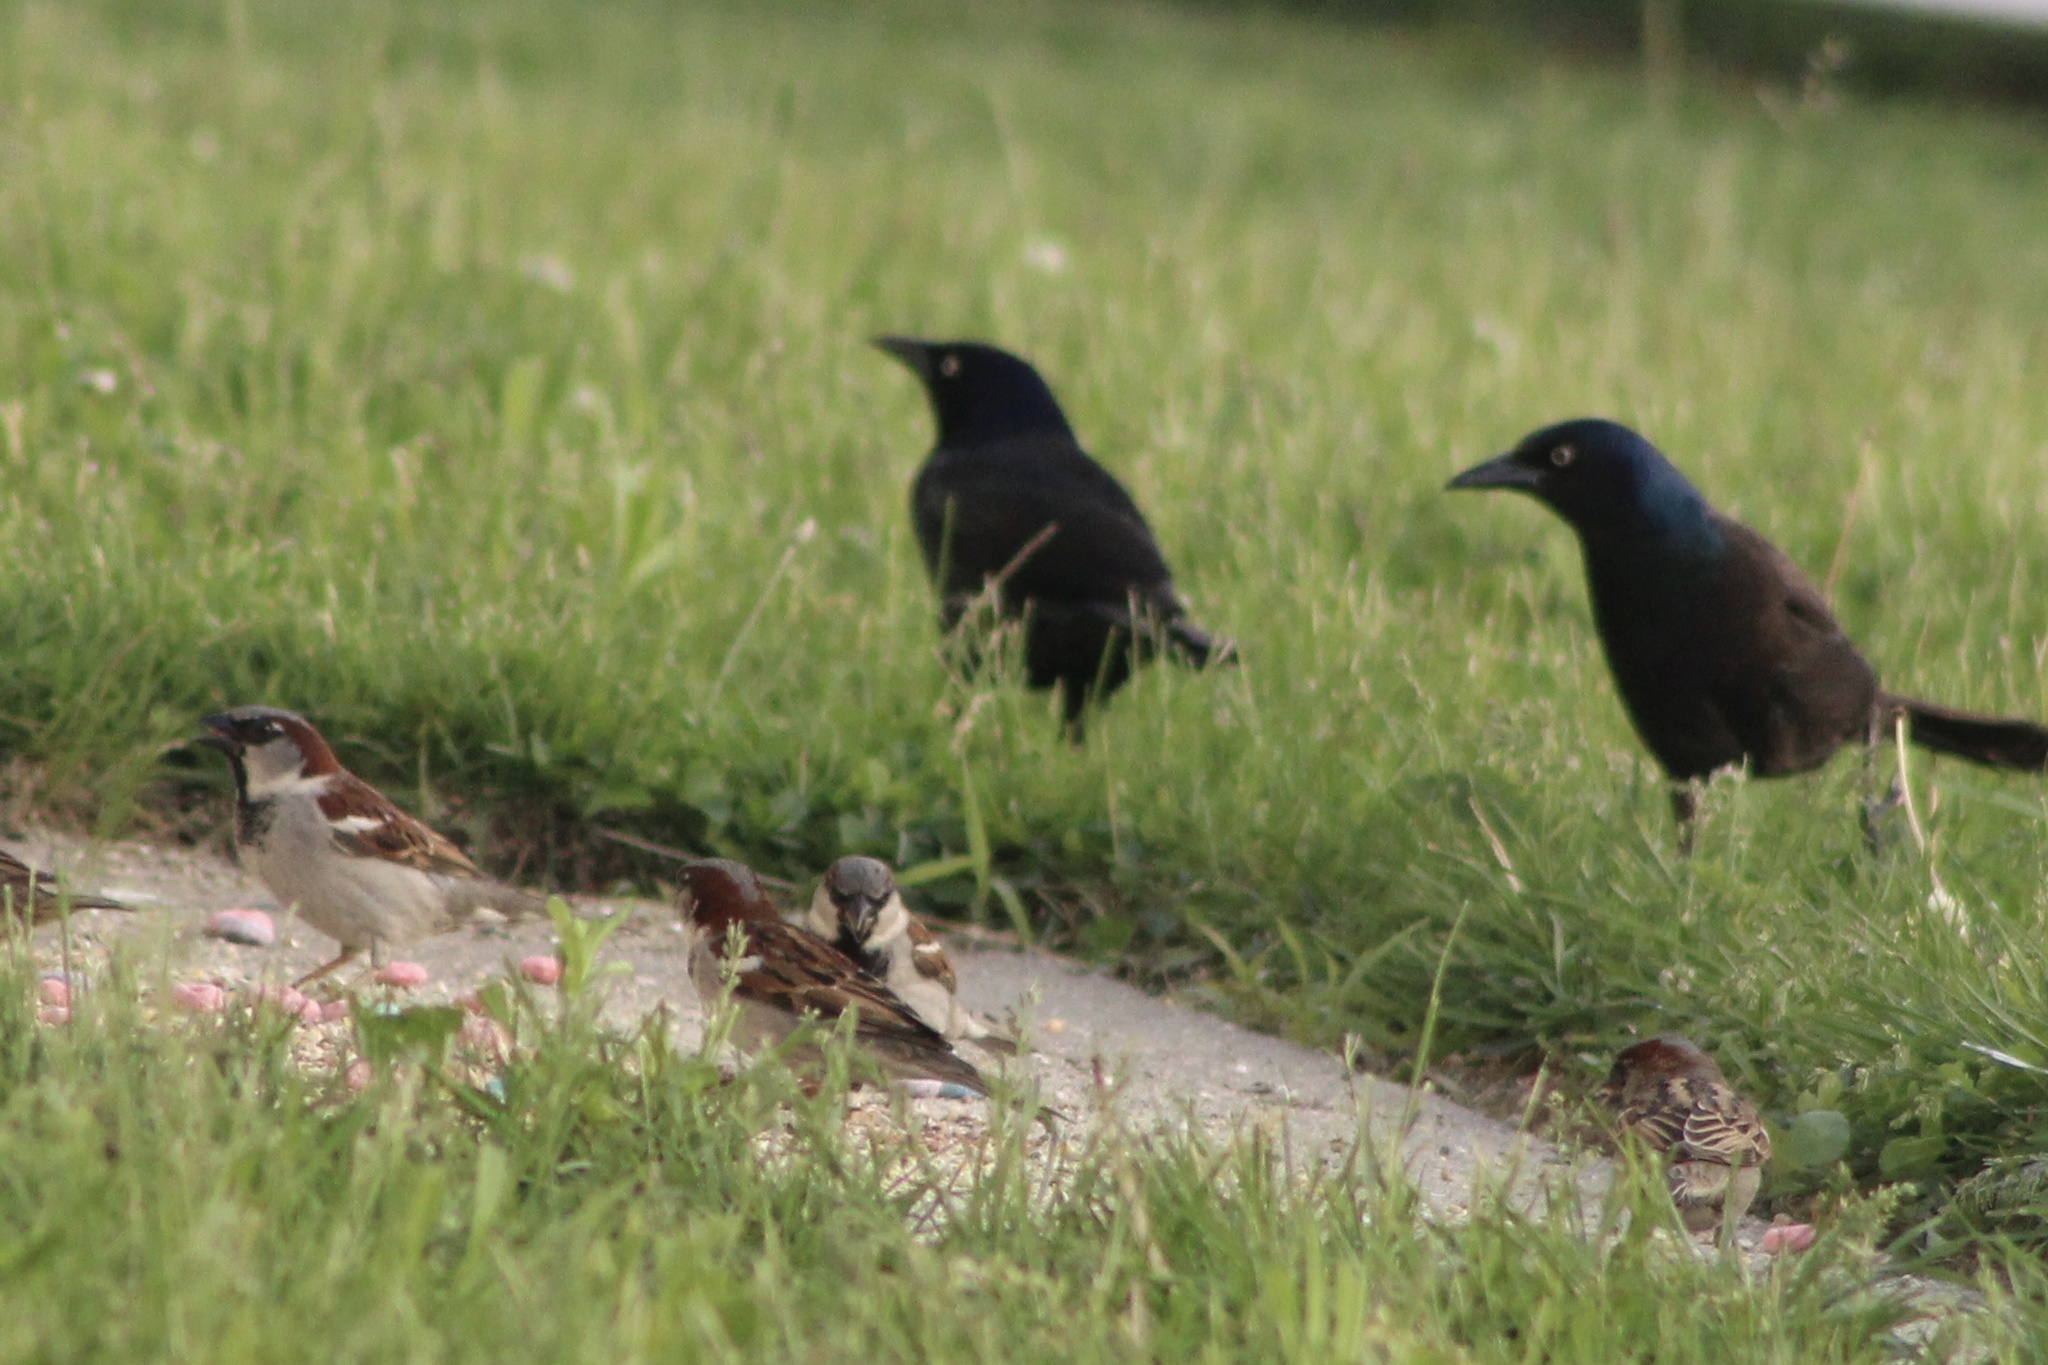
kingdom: Animalia
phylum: Chordata
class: Aves
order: Passeriformes
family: Icteridae
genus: Quiscalus
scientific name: Quiscalus quiscula
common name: Common grackle
